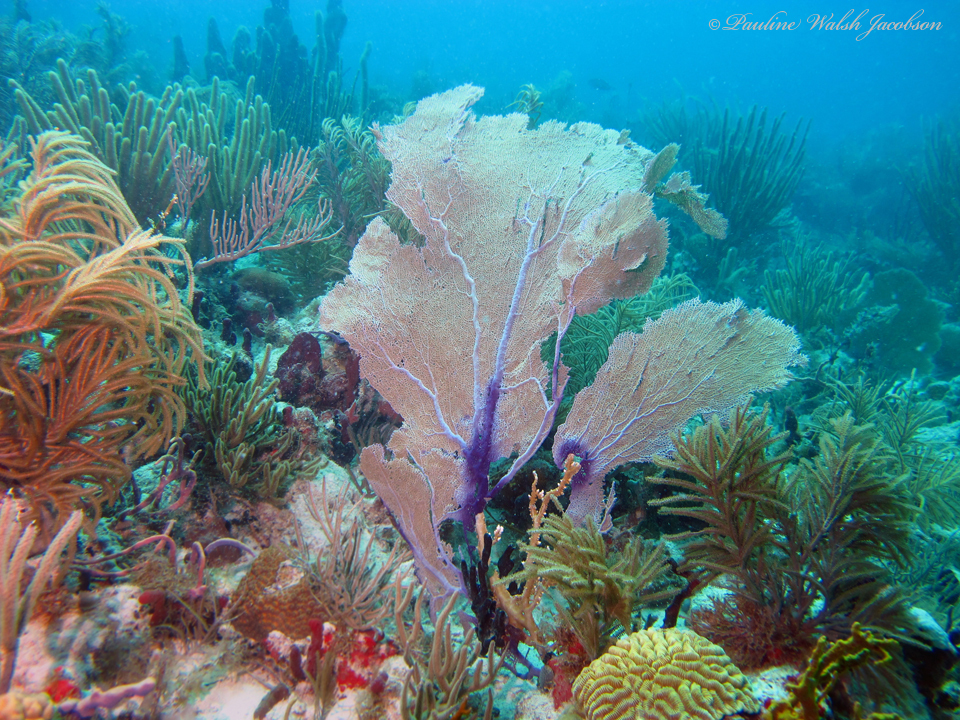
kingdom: Animalia
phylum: Cnidaria
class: Anthozoa
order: Malacalcyonacea
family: Gorgoniidae
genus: Gorgonia
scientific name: Gorgonia ventalina
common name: Common sea fan
